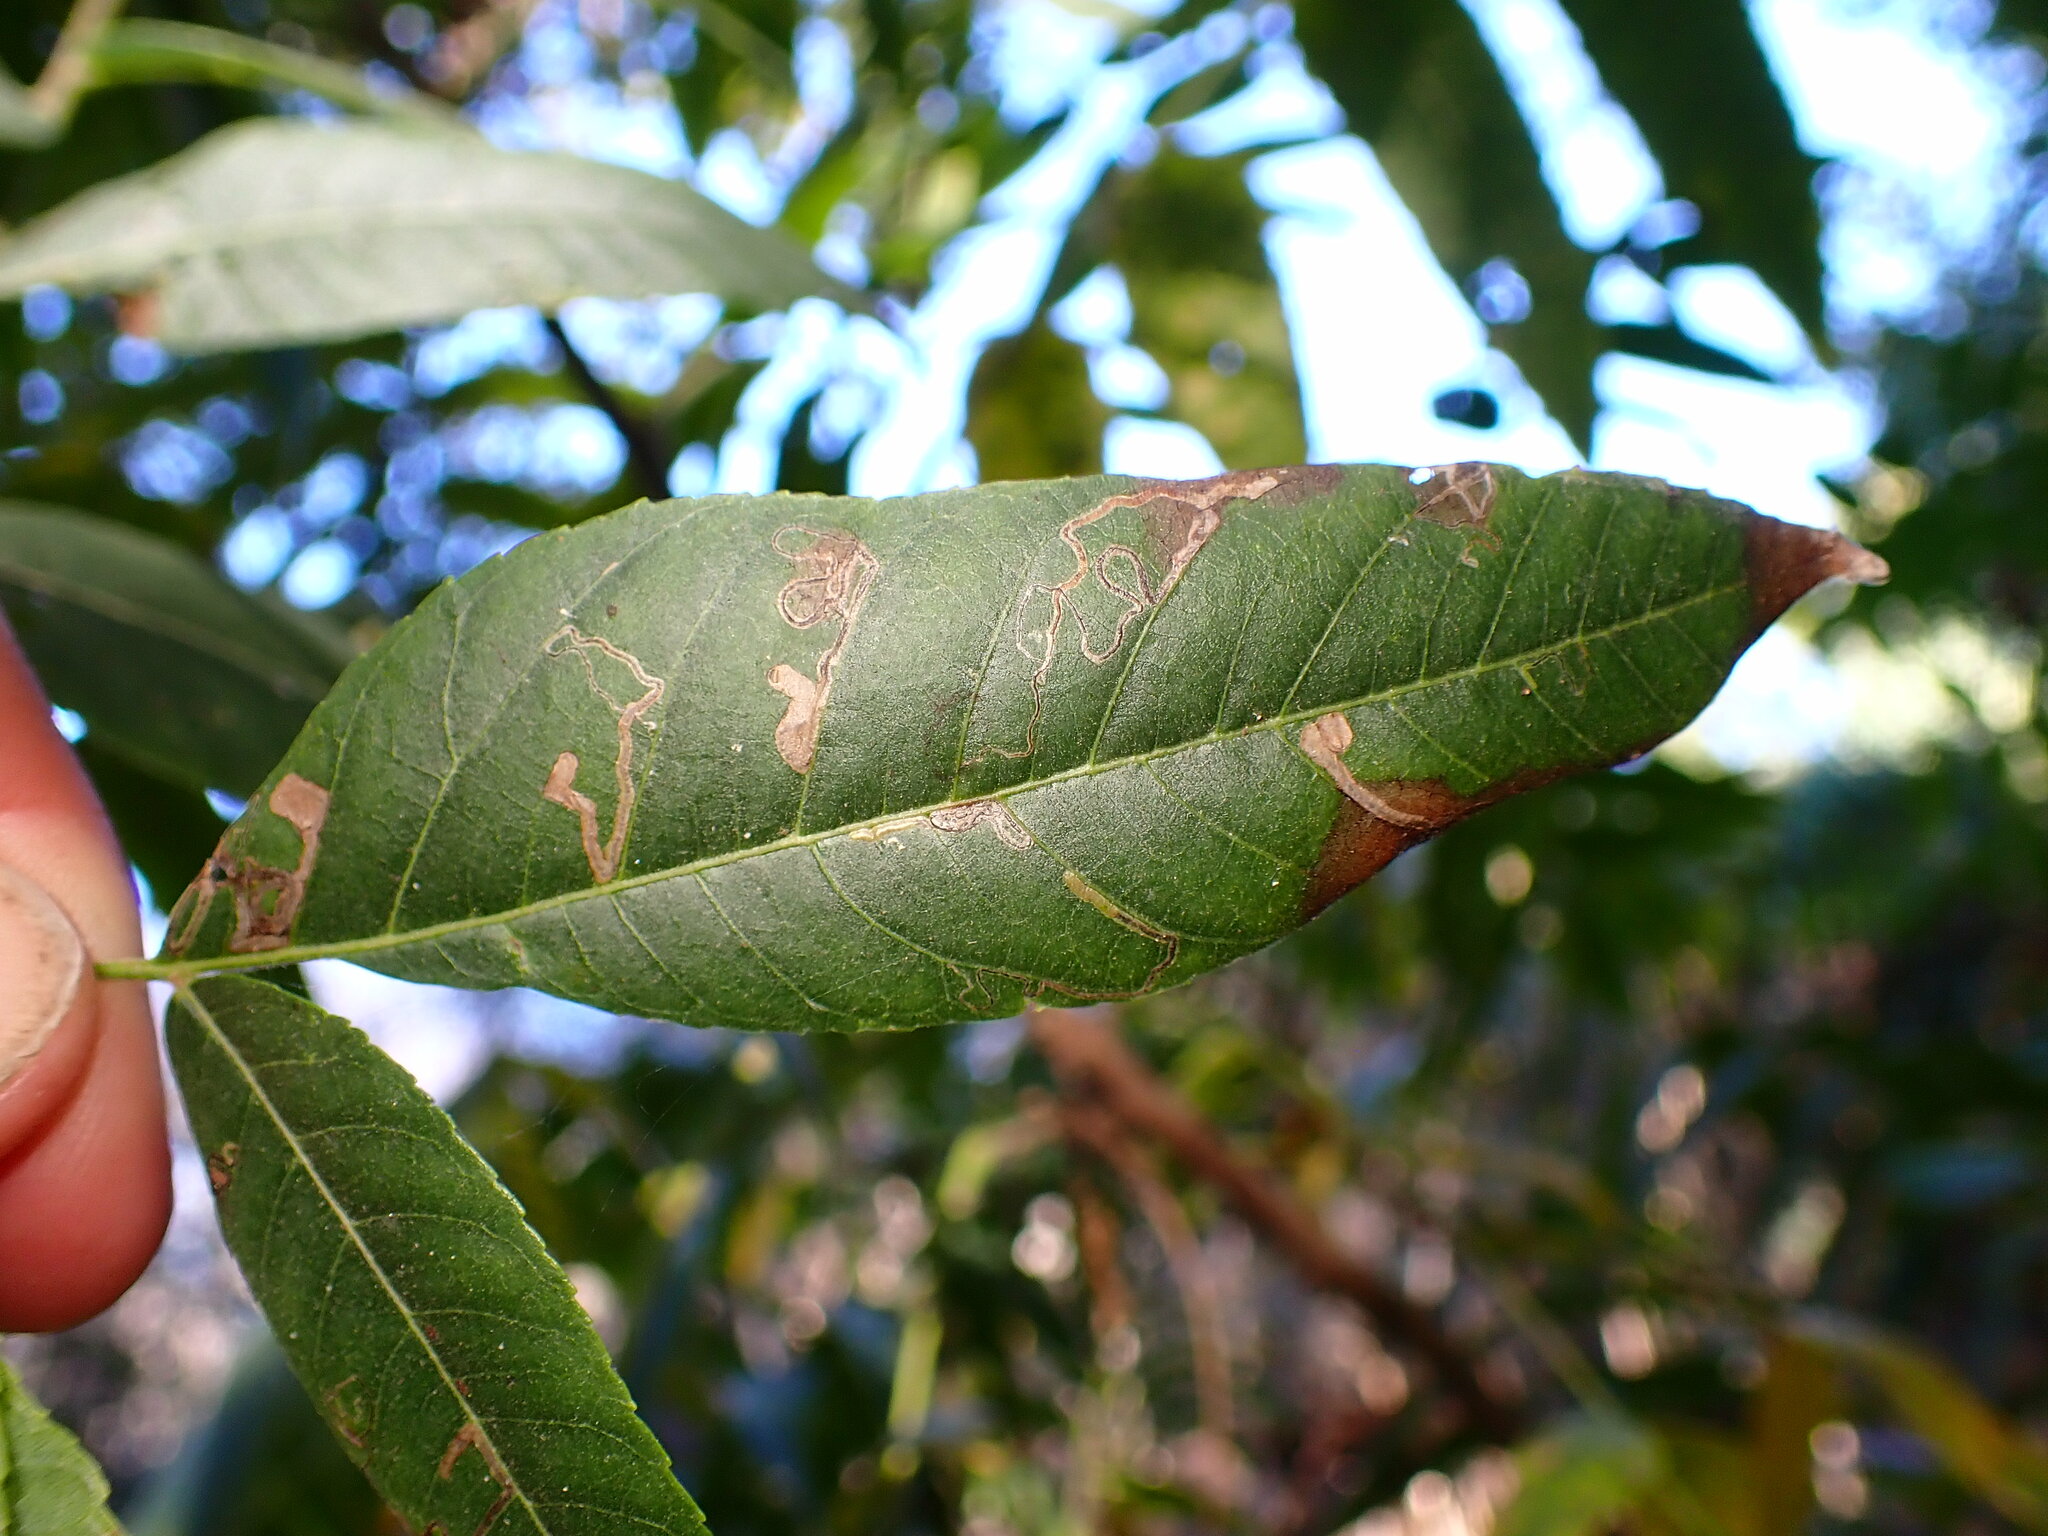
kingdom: Animalia
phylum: Arthropoda
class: Insecta
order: Lepidoptera
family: Nepticulidae
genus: Stigmella
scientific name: Stigmella longisacca
